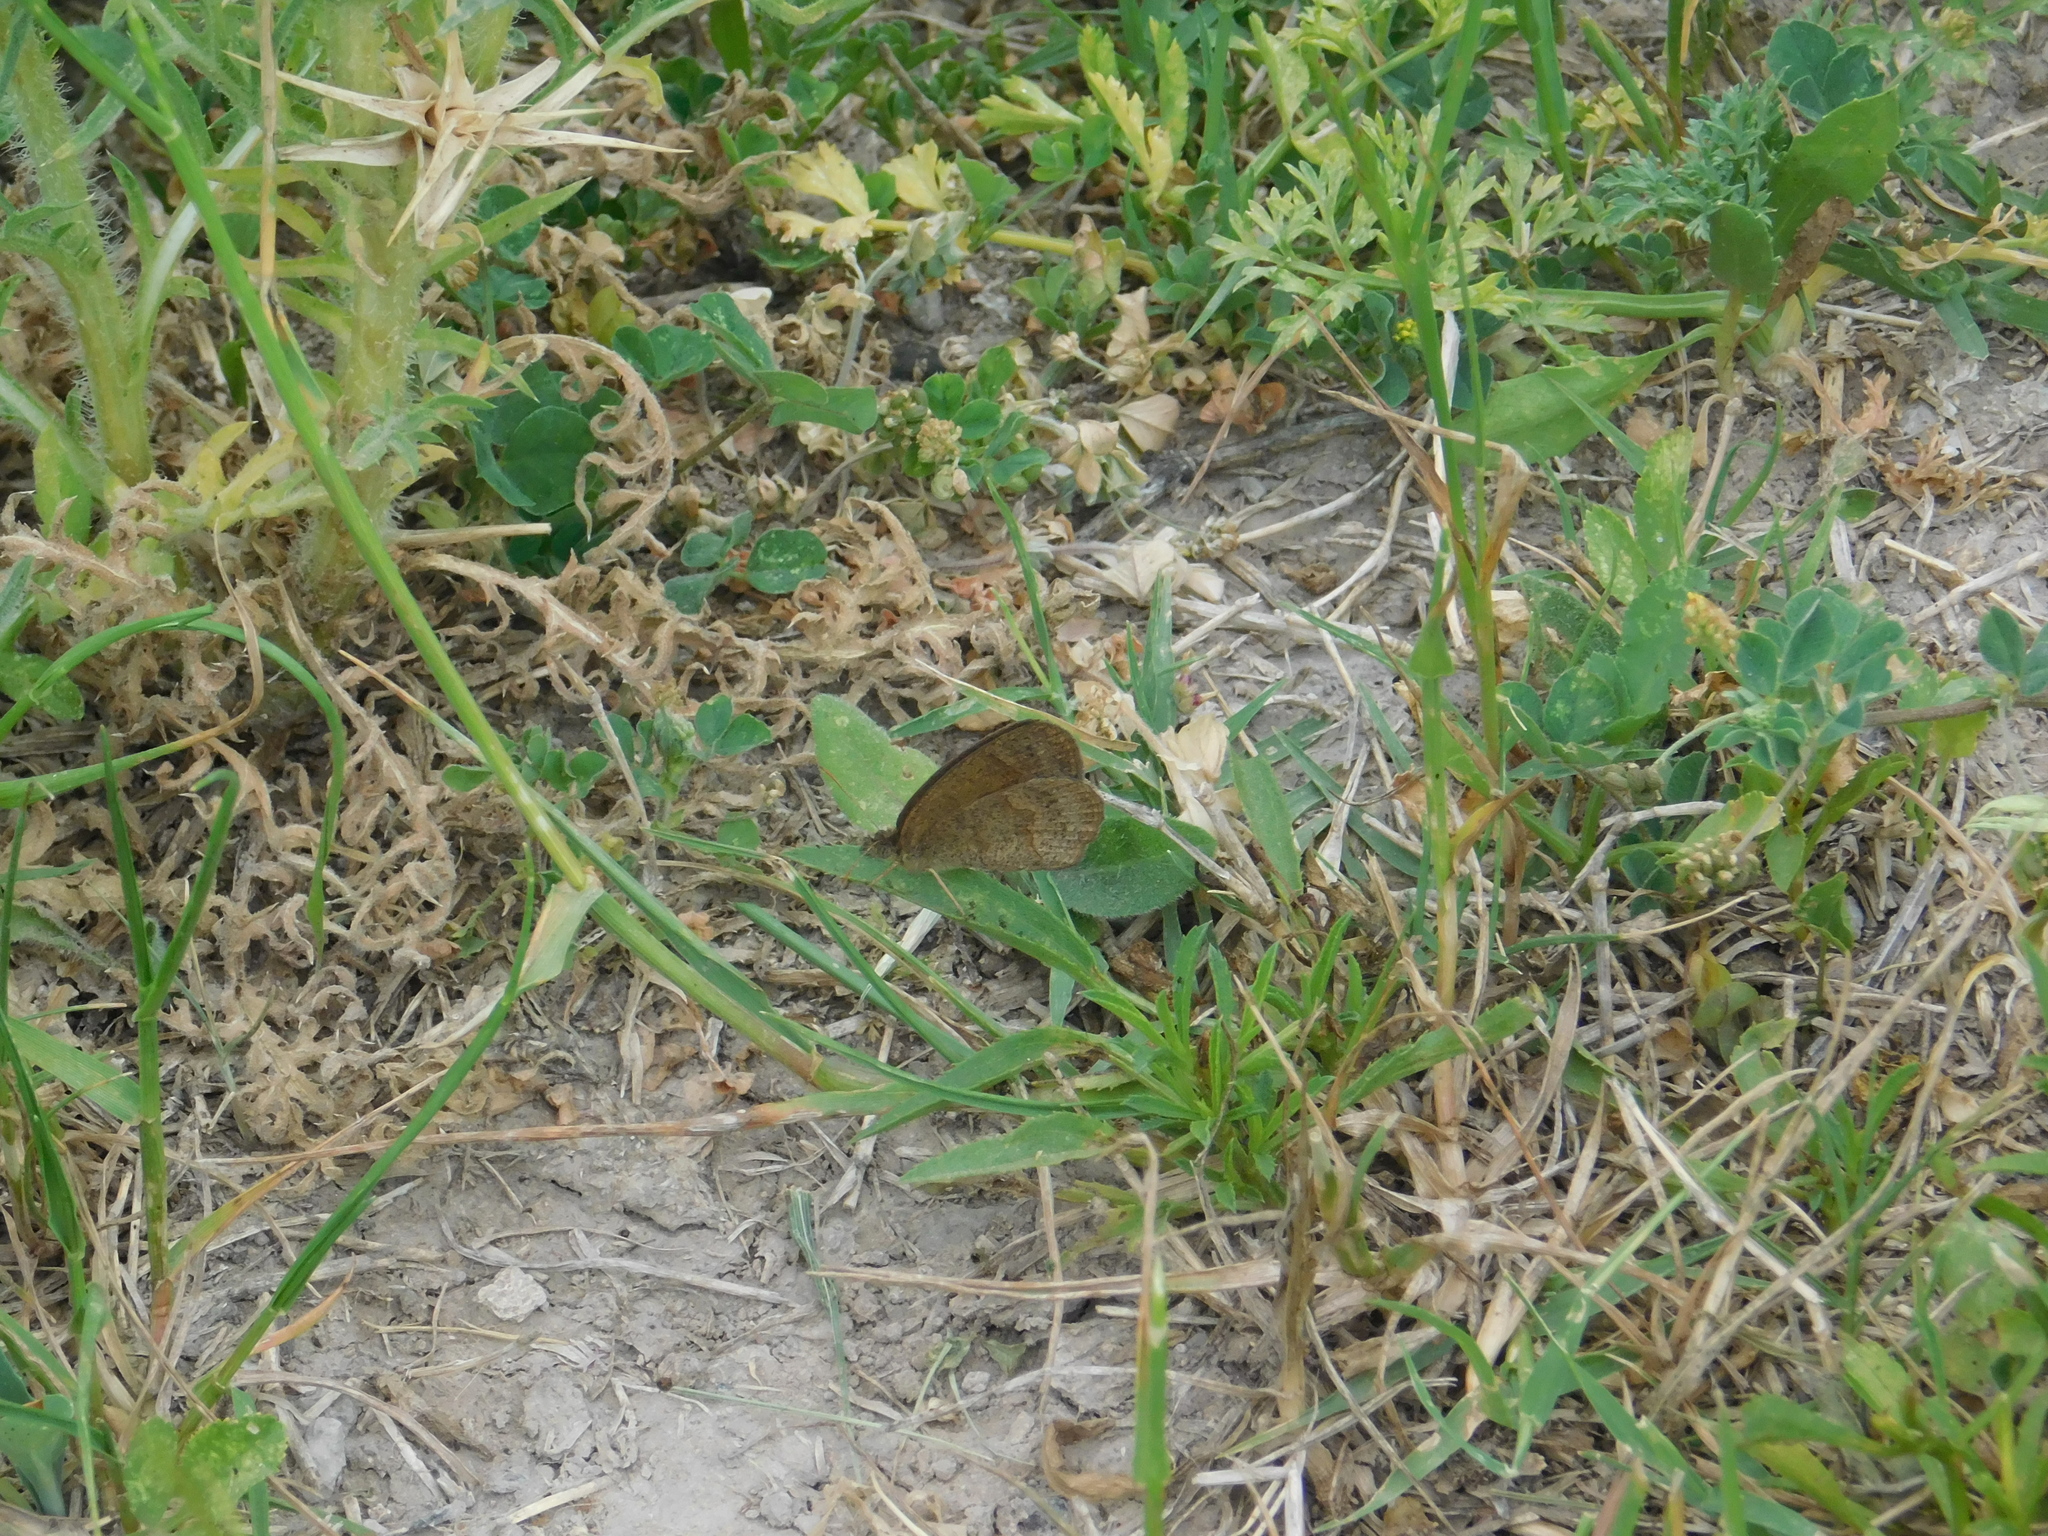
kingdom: Animalia
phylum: Arthropoda
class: Insecta
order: Lepidoptera
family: Nymphalidae
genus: Yphthimoides
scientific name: Yphthimoides celmis
